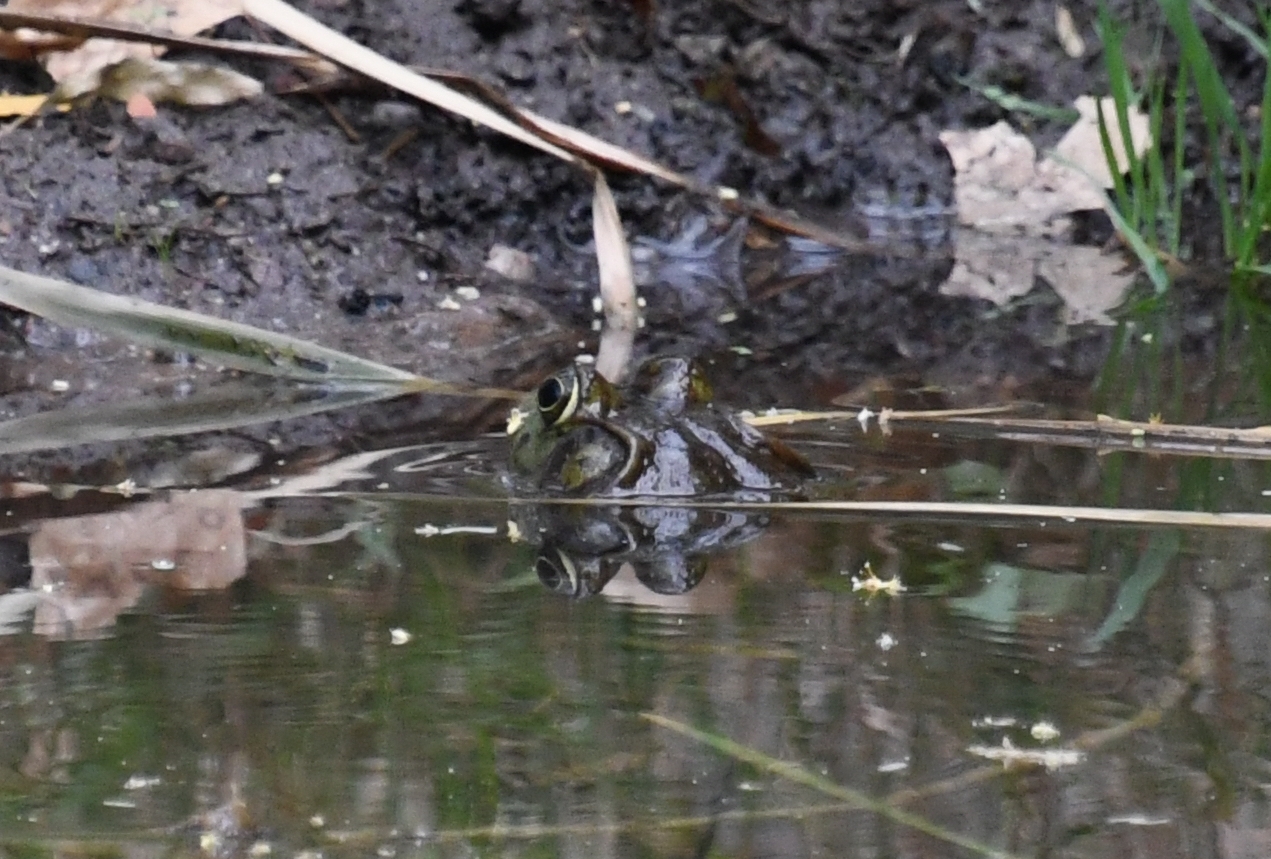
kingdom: Animalia
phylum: Chordata
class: Amphibia
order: Anura
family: Ranidae
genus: Lithobates
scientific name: Lithobates catesbeianus
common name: American bullfrog
